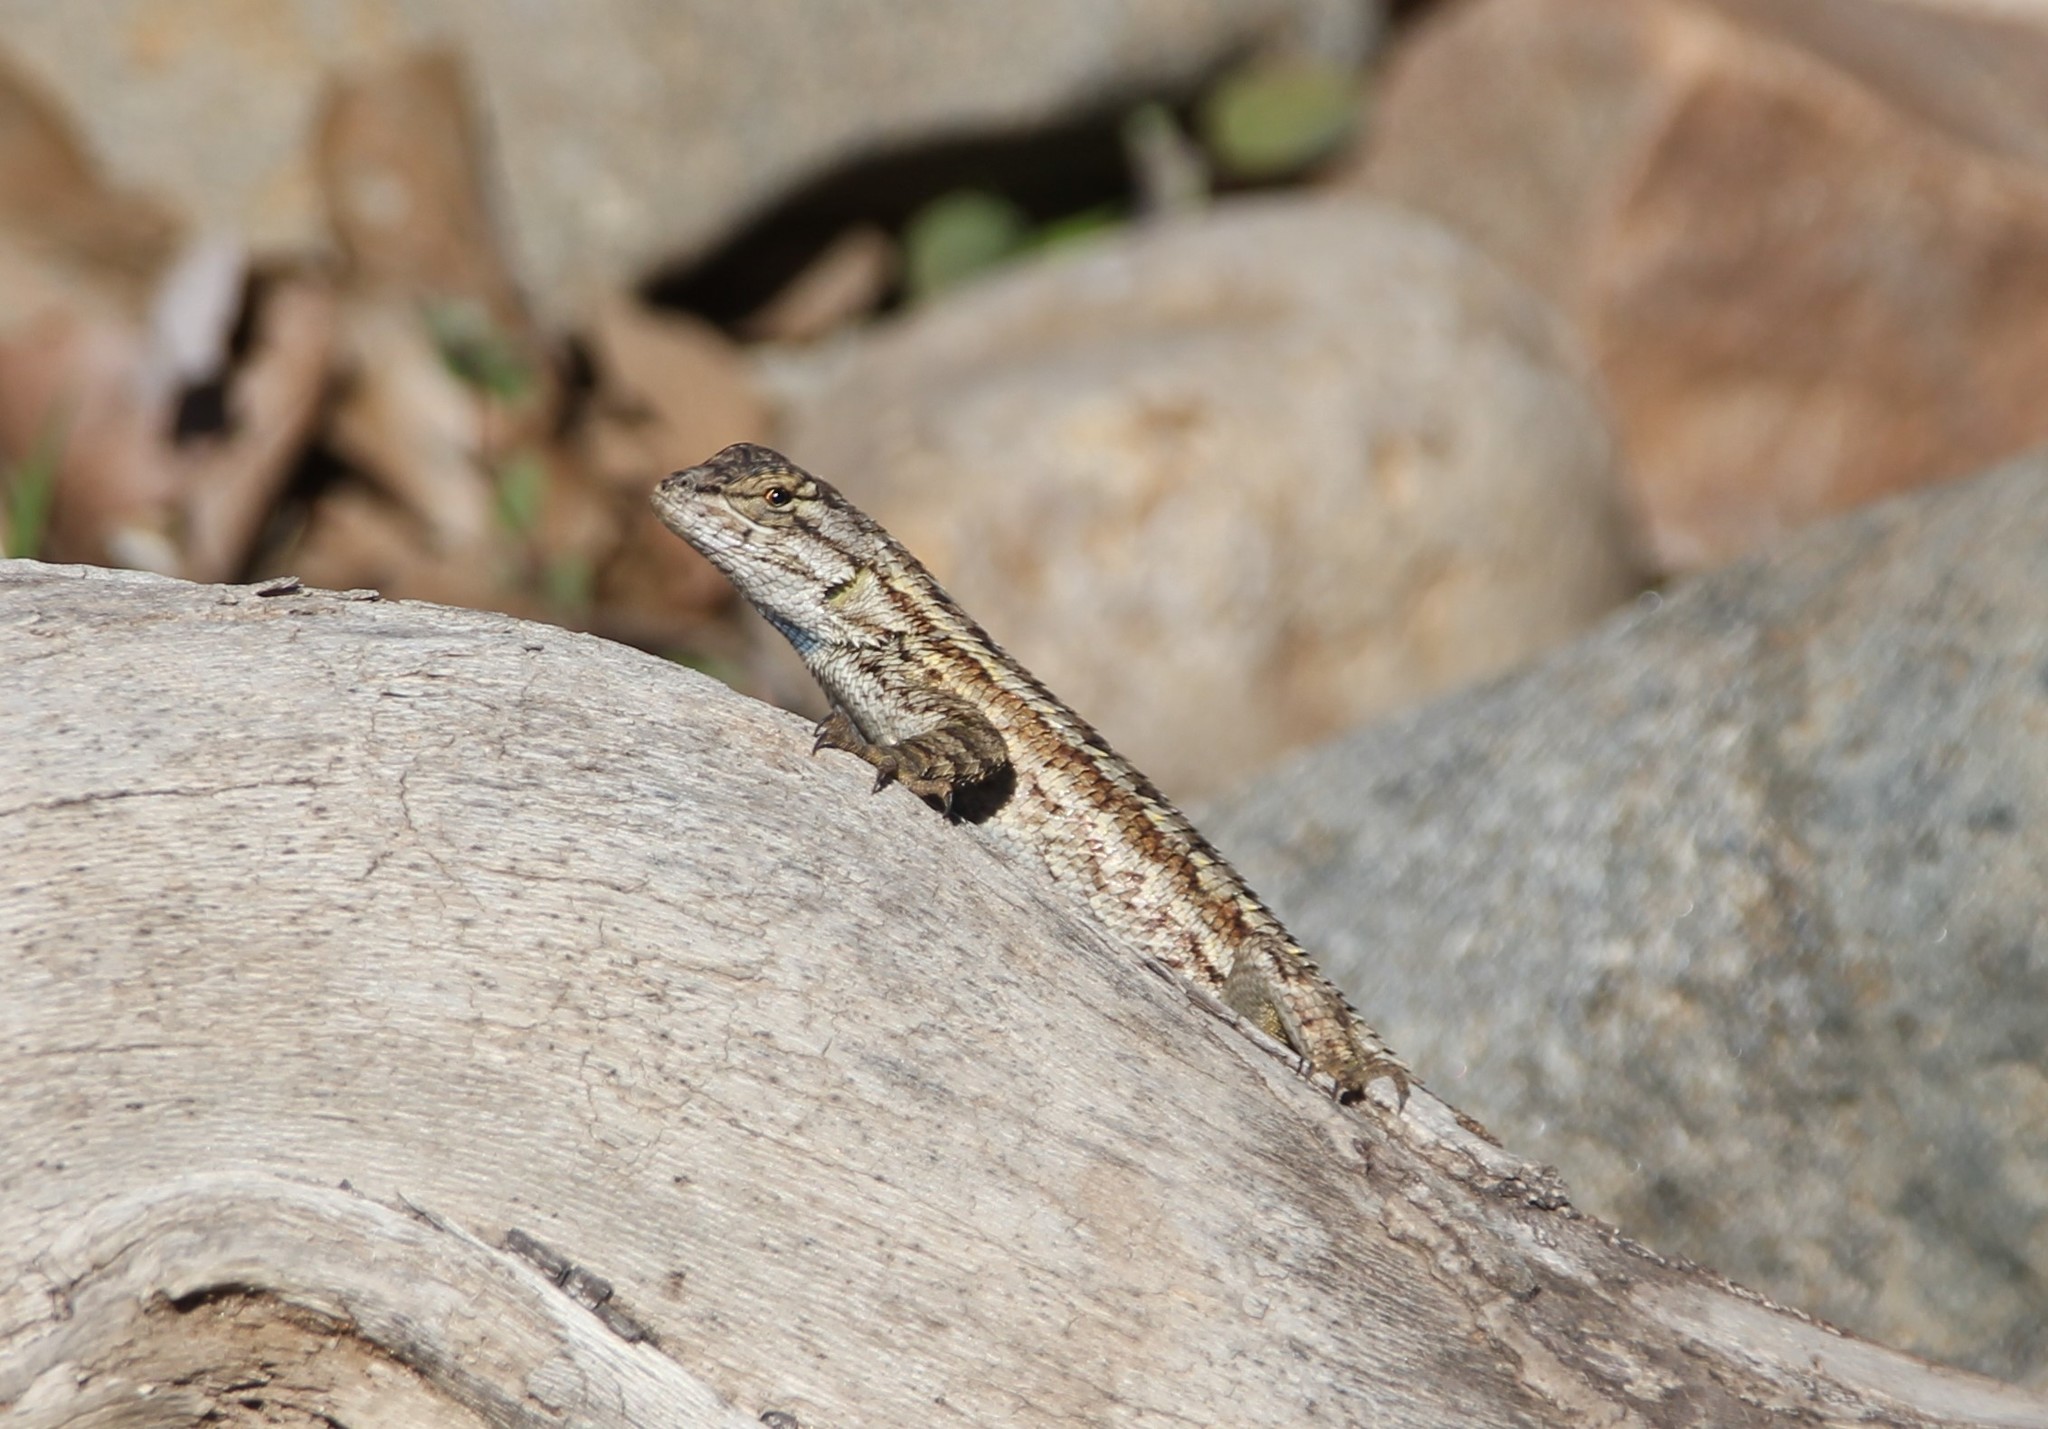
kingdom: Animalia
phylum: Chordata
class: Squamata
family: Phrynosomatidae
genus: Sceloporus
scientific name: Sceloporus occidentalis
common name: Western fence lizard
